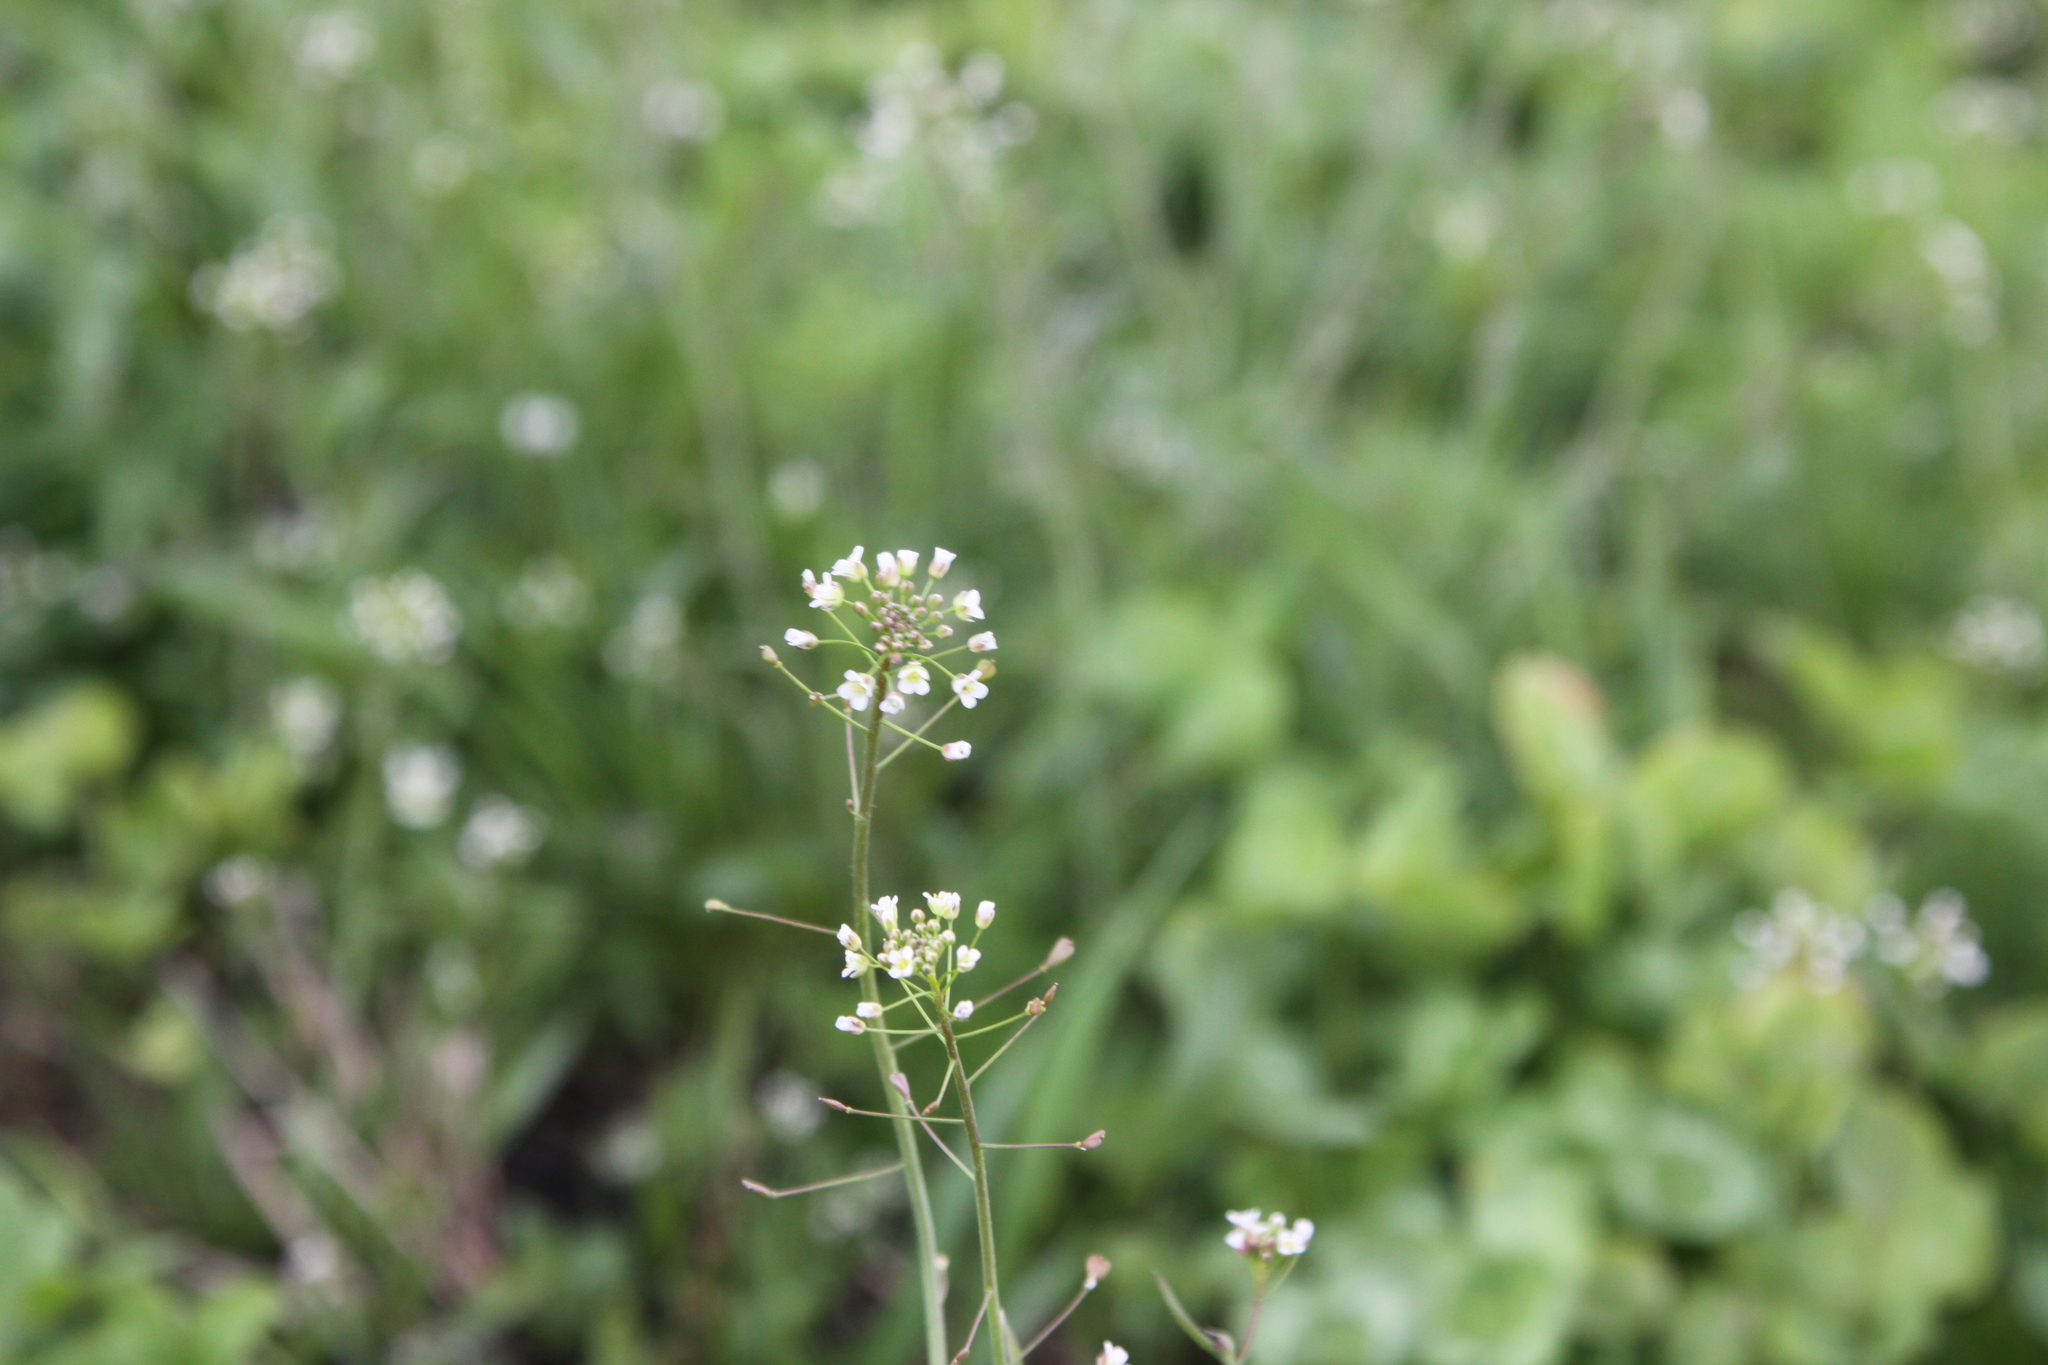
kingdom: Plantae
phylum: Tracheophyta
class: Magnoliopsida
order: Brassicales
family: Brassicaceae
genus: Capsella
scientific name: Capsella bursa-pastoris
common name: Shepherd's purse
